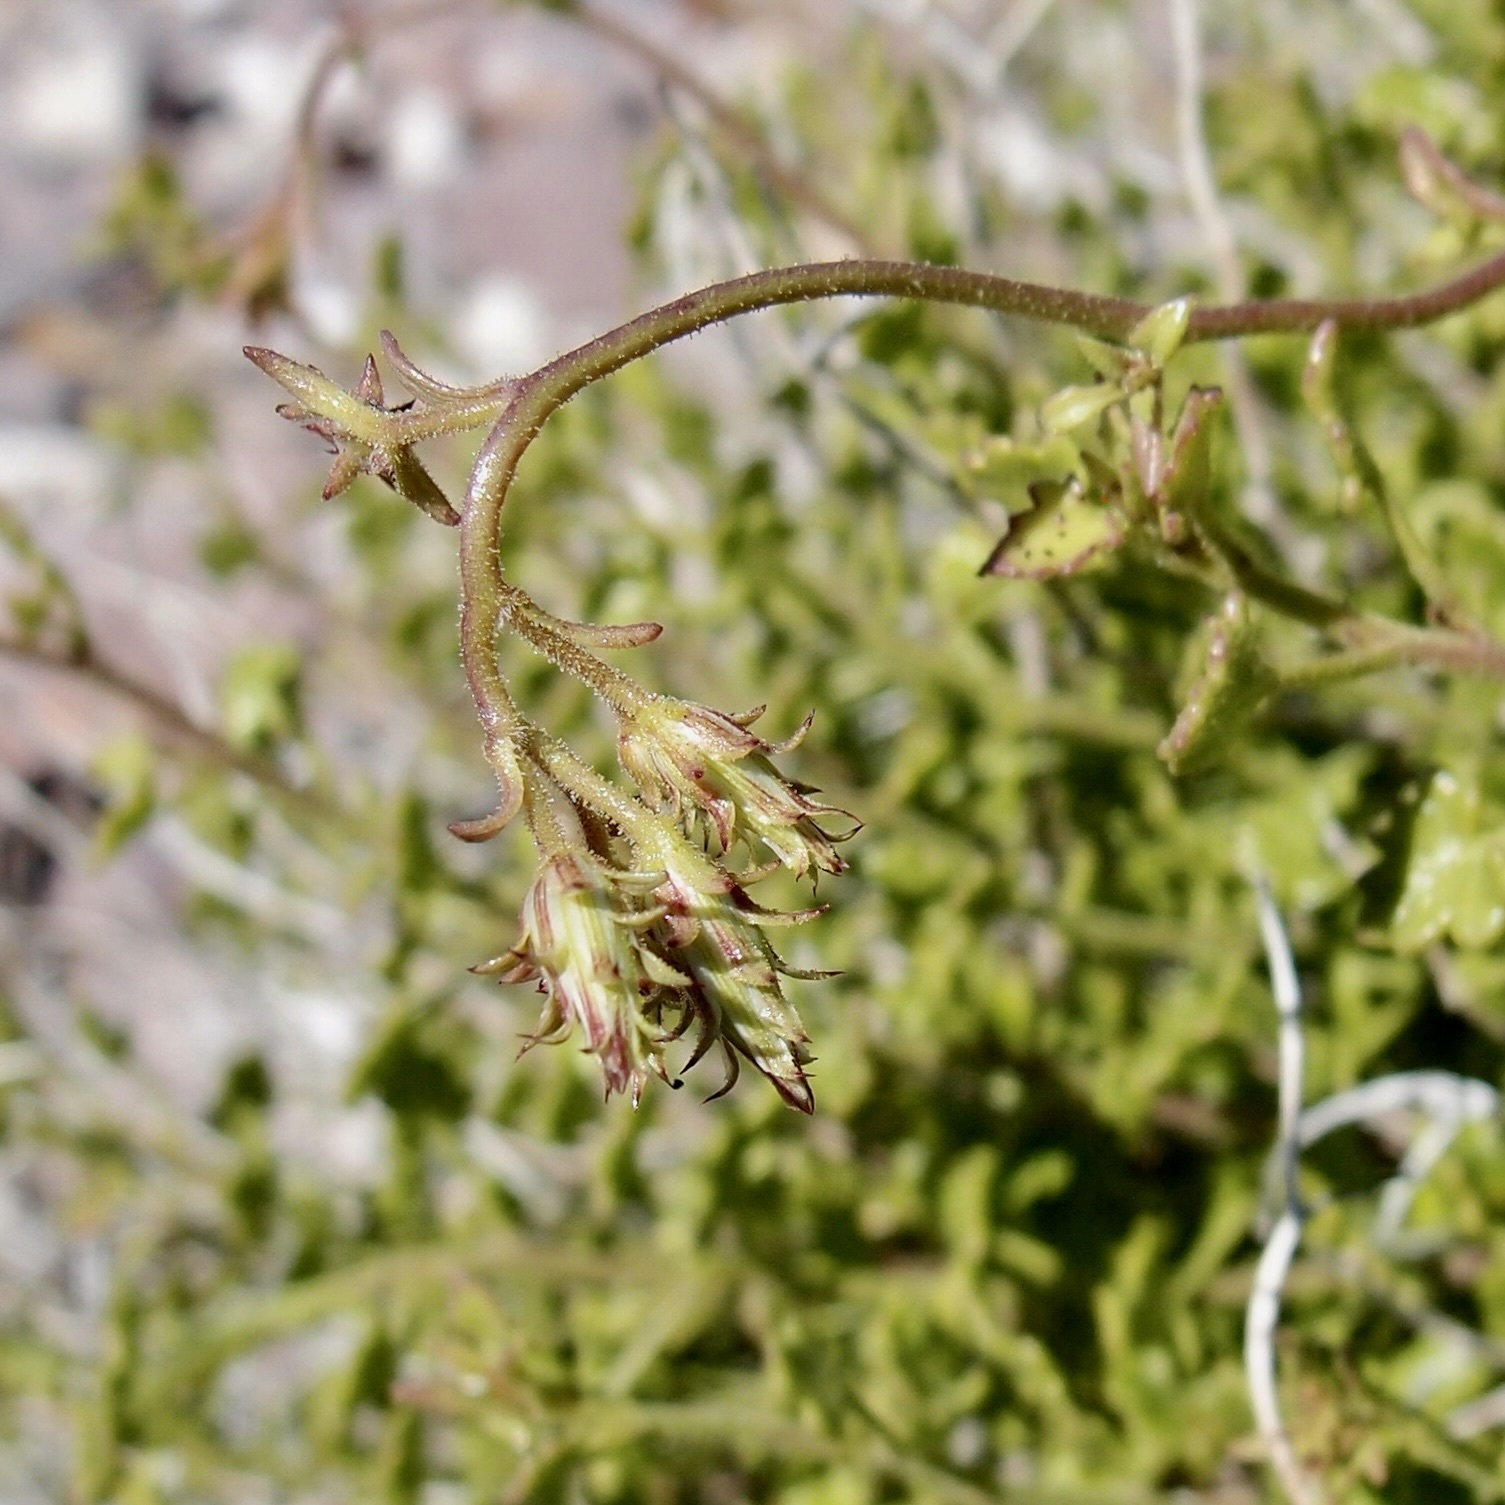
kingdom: Plantae
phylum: Tracheophyta
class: Magnoliopsida
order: Asterales
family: Asteraceae
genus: Pleurocoronis
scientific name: Pleurocoronis laphamioides
